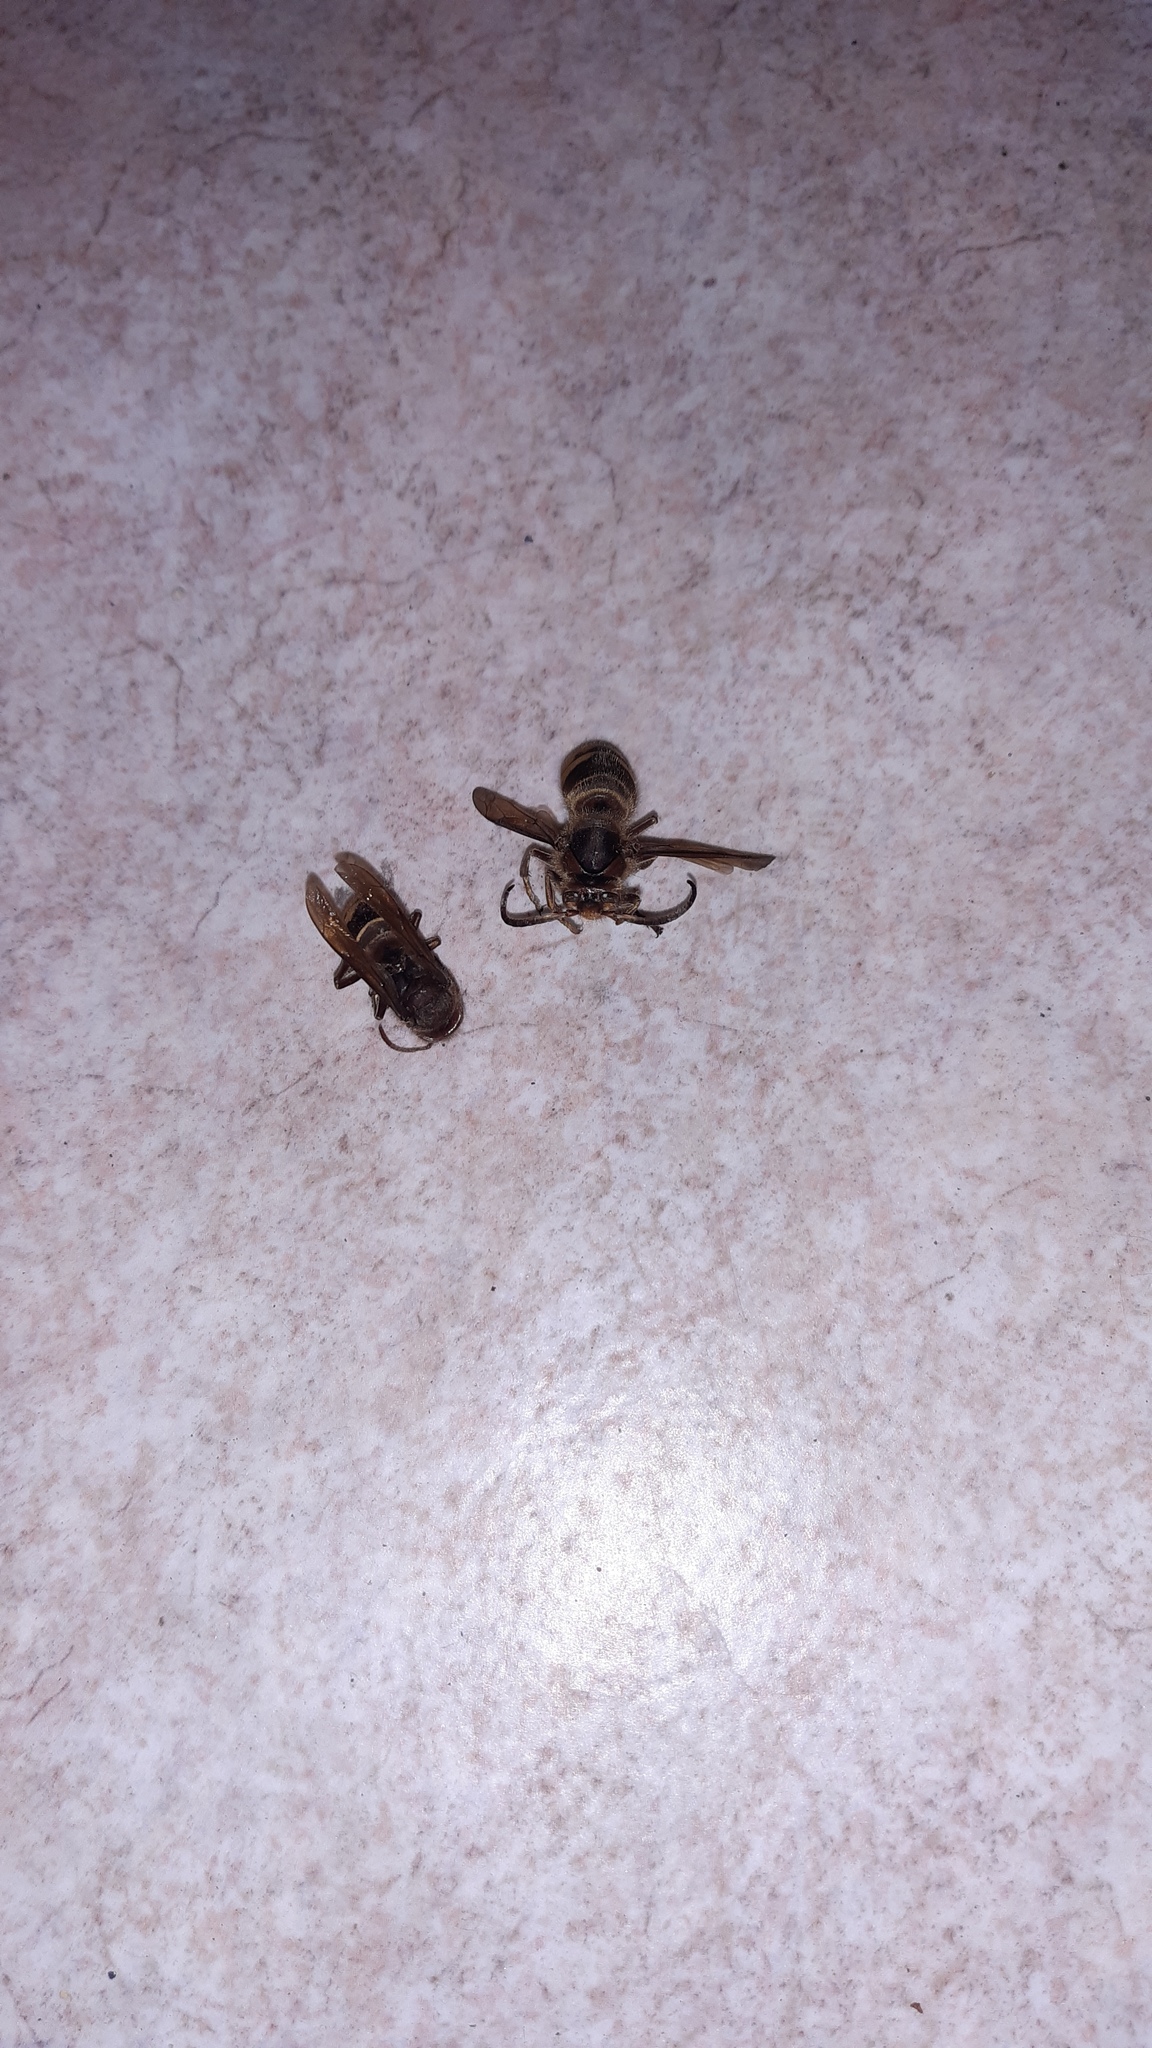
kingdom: Animalia
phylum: Arthropoda
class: Insecta
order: Hymenoptera
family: Vespidae
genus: Vespa
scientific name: Vespa crabro
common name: Hornet
